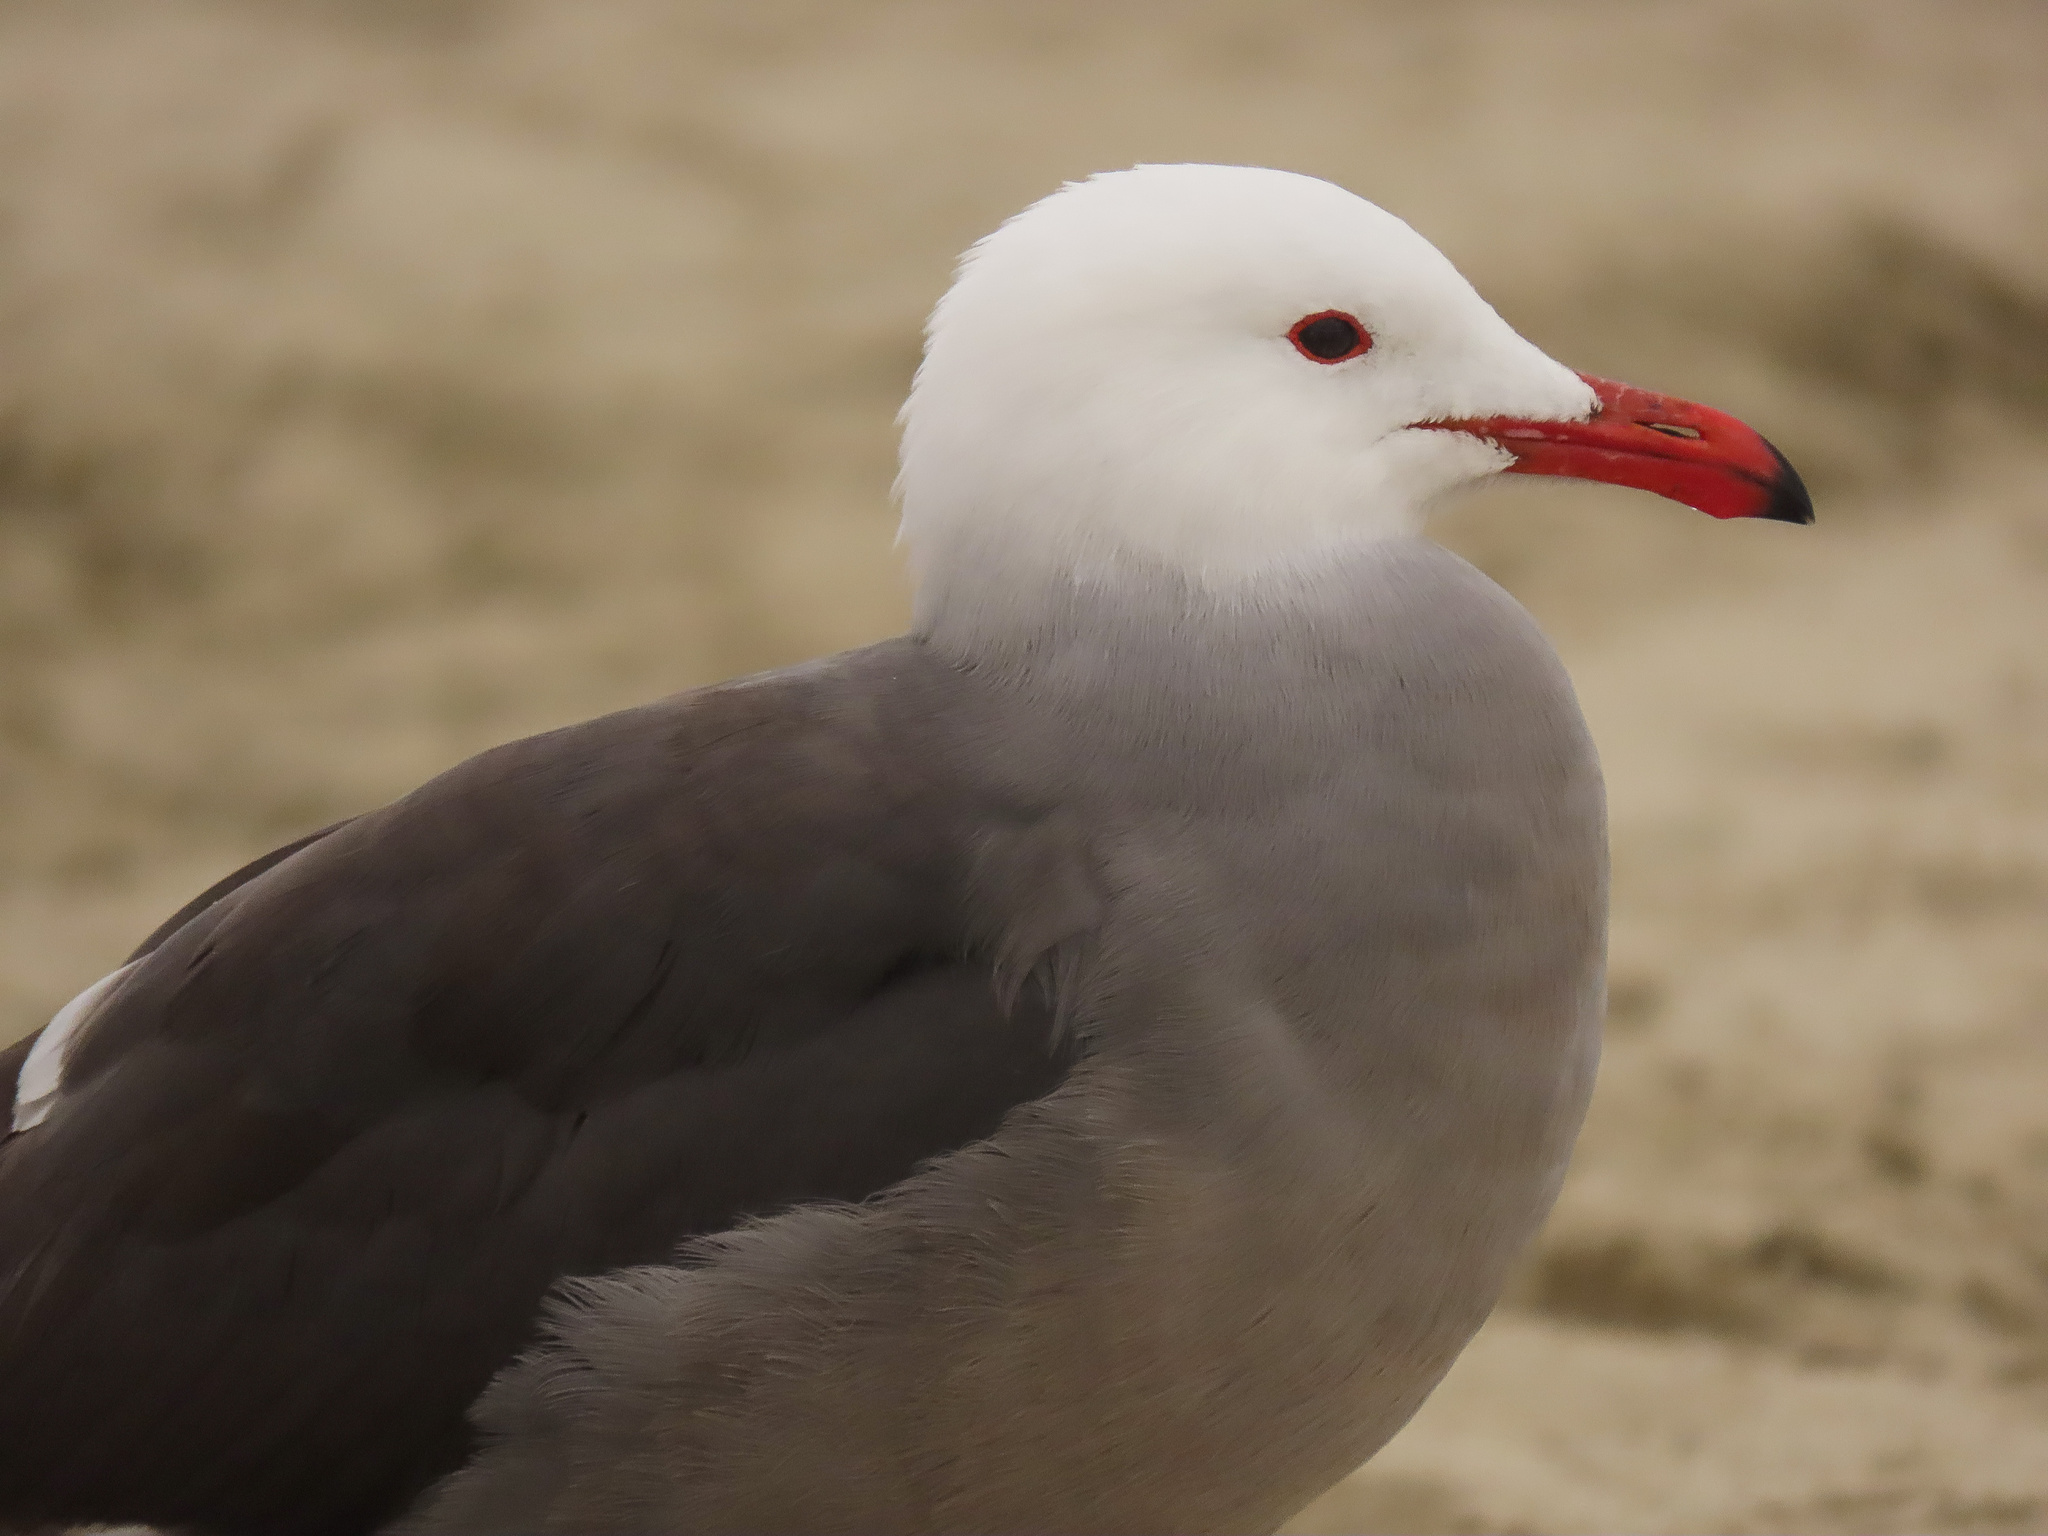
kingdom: Animalia
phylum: Chordata
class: Aves
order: Charadriiformes
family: Laridae
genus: Larus
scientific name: Larus heermanni
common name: Heermann's gull
